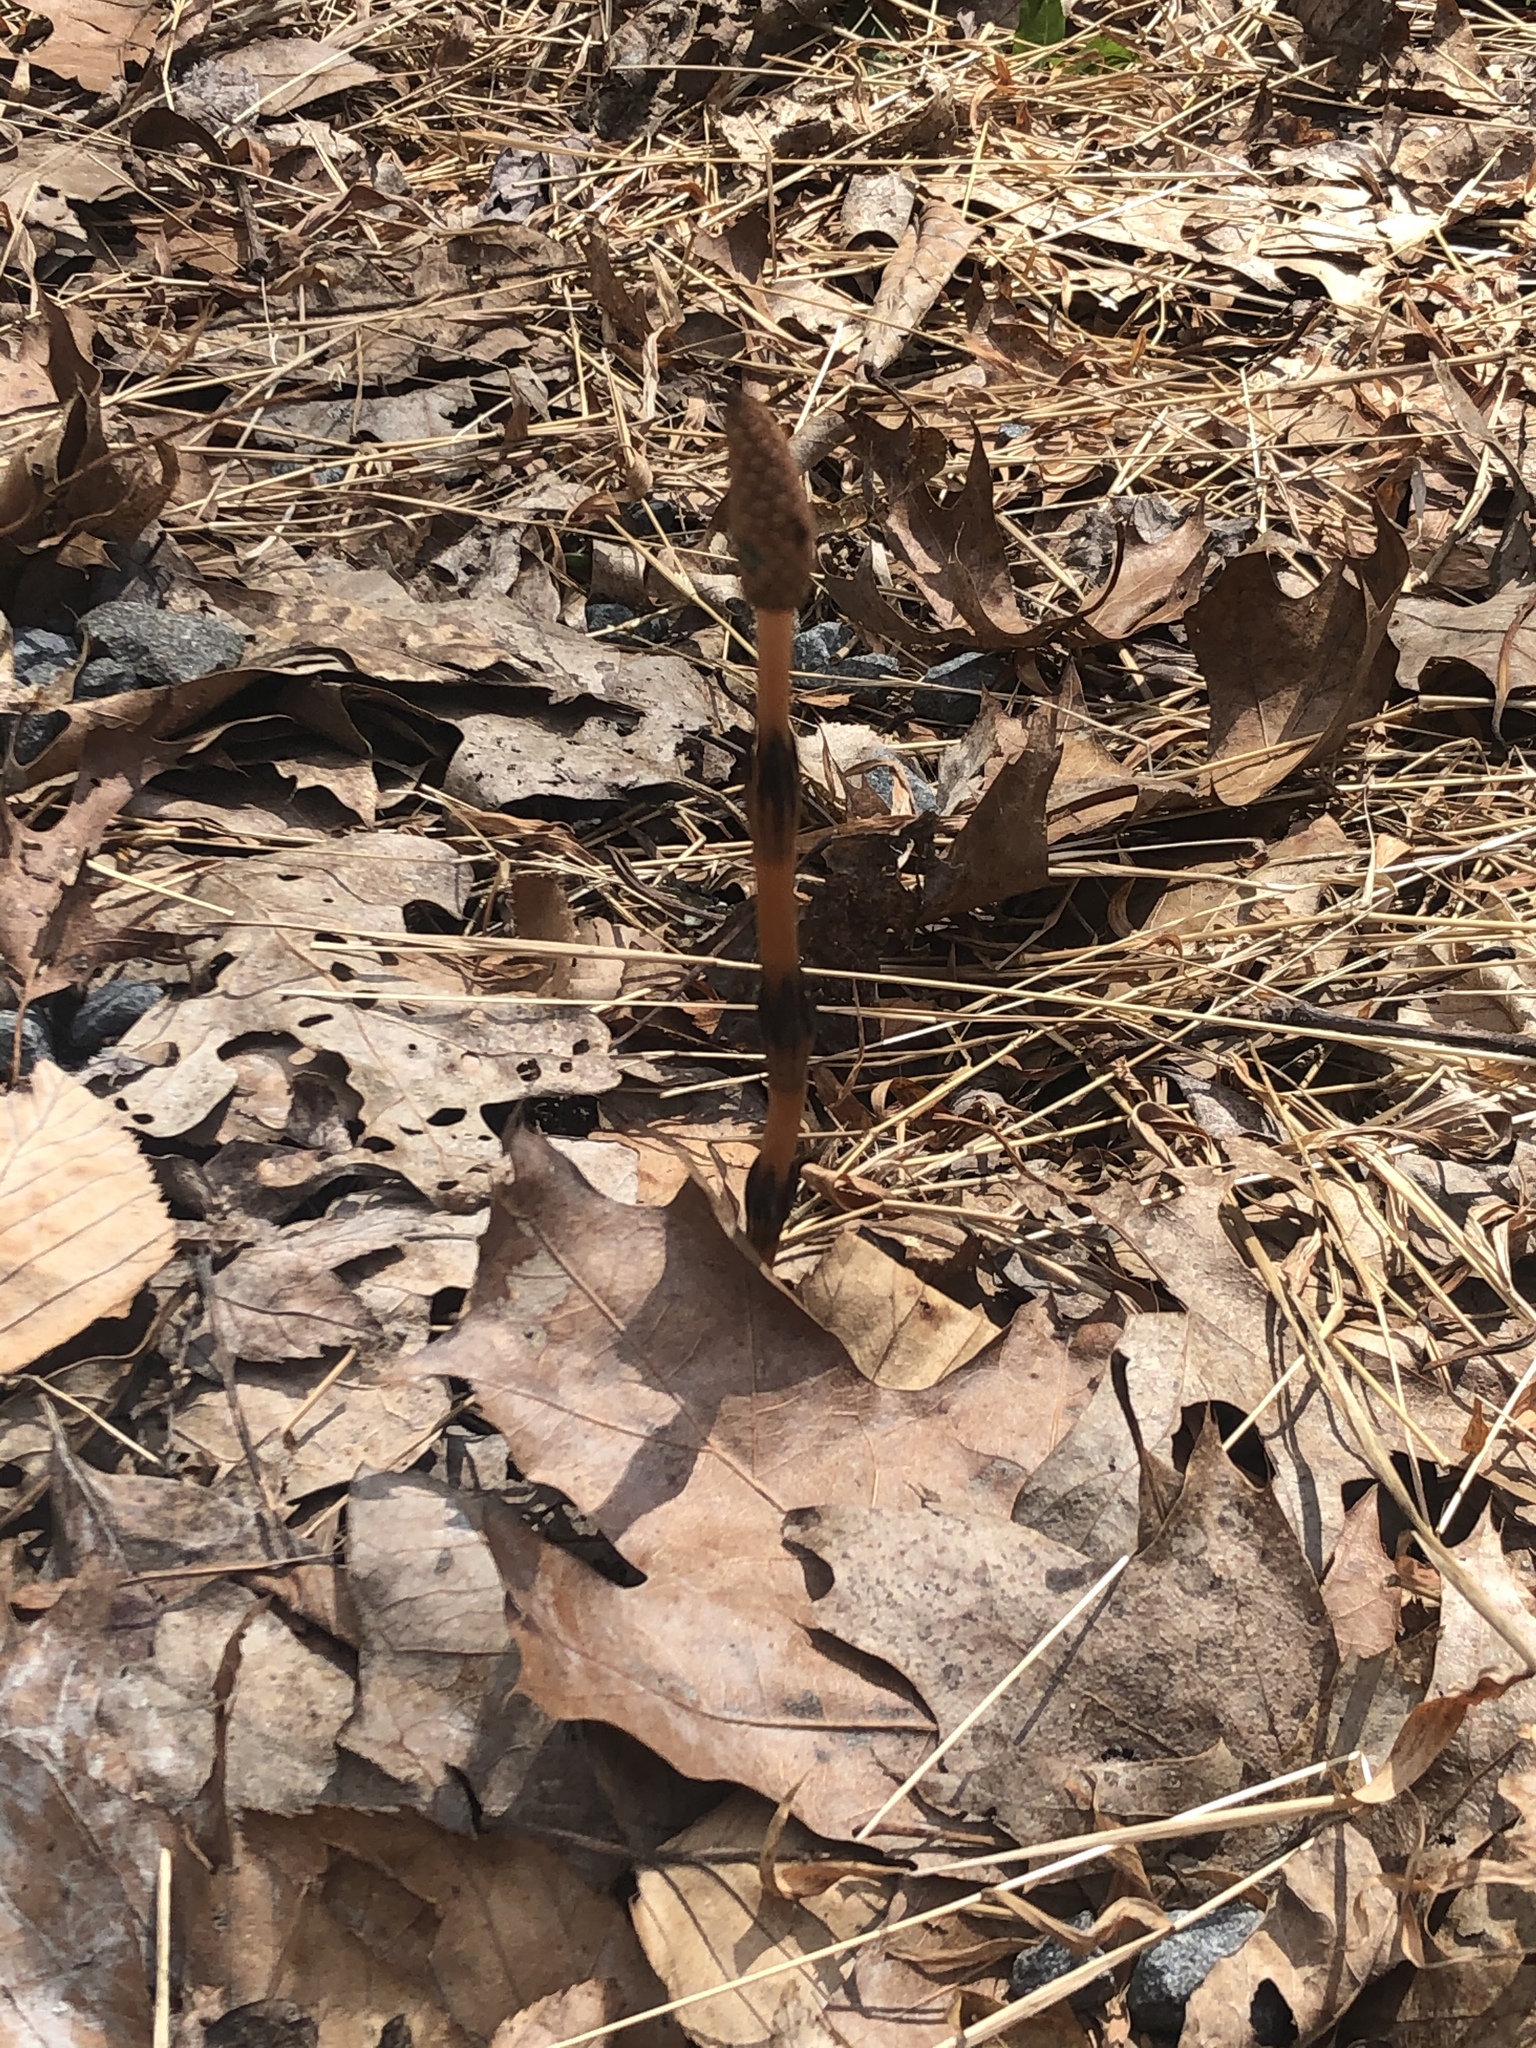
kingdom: Plantae
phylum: Tracheophyta
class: Polypodiopsida
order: Equisetales
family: Equisetaceae
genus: Equisetum
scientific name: Equisetum arvense
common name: Field horsetail
